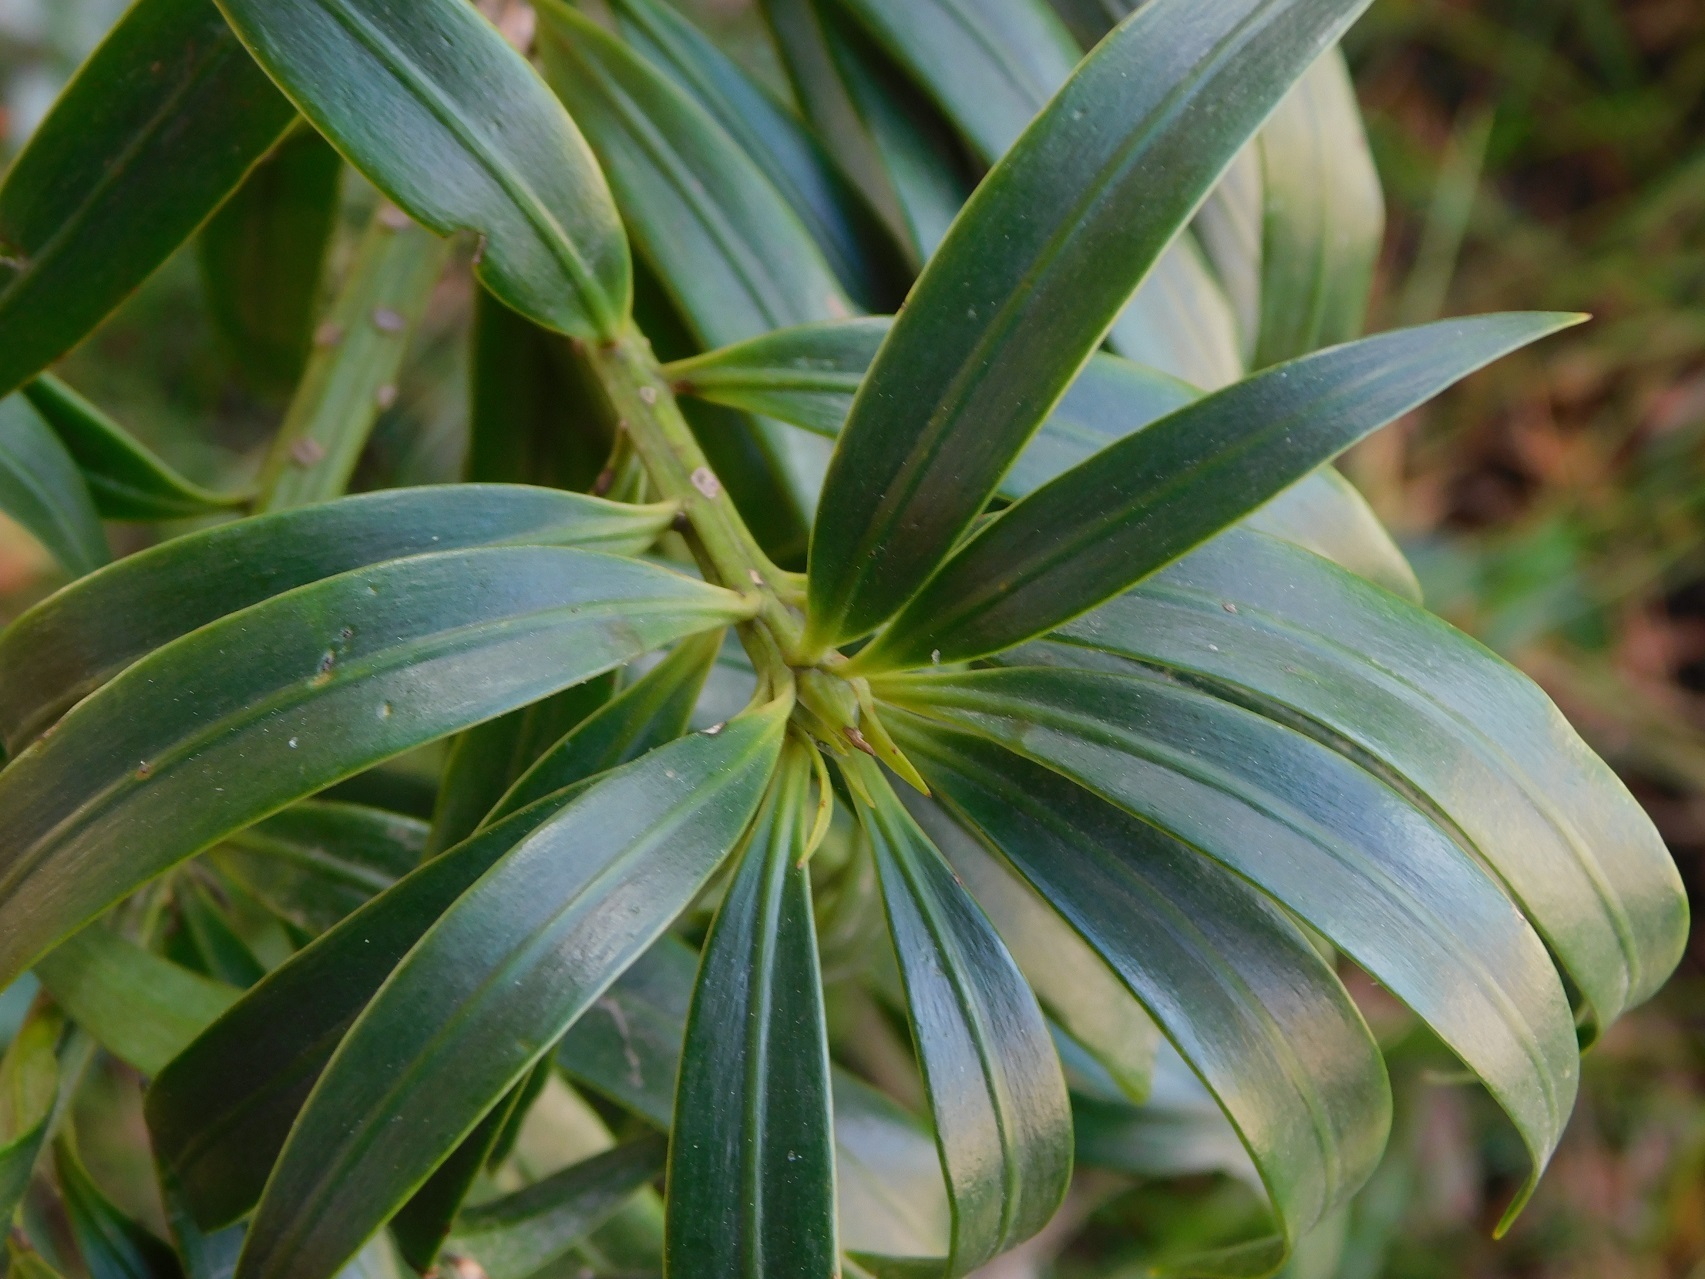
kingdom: Plantae
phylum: Tracheophyta
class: Pinopsida
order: Pinales
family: Podocarpaceae
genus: Podocarpus
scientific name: Podocarpus matudae
